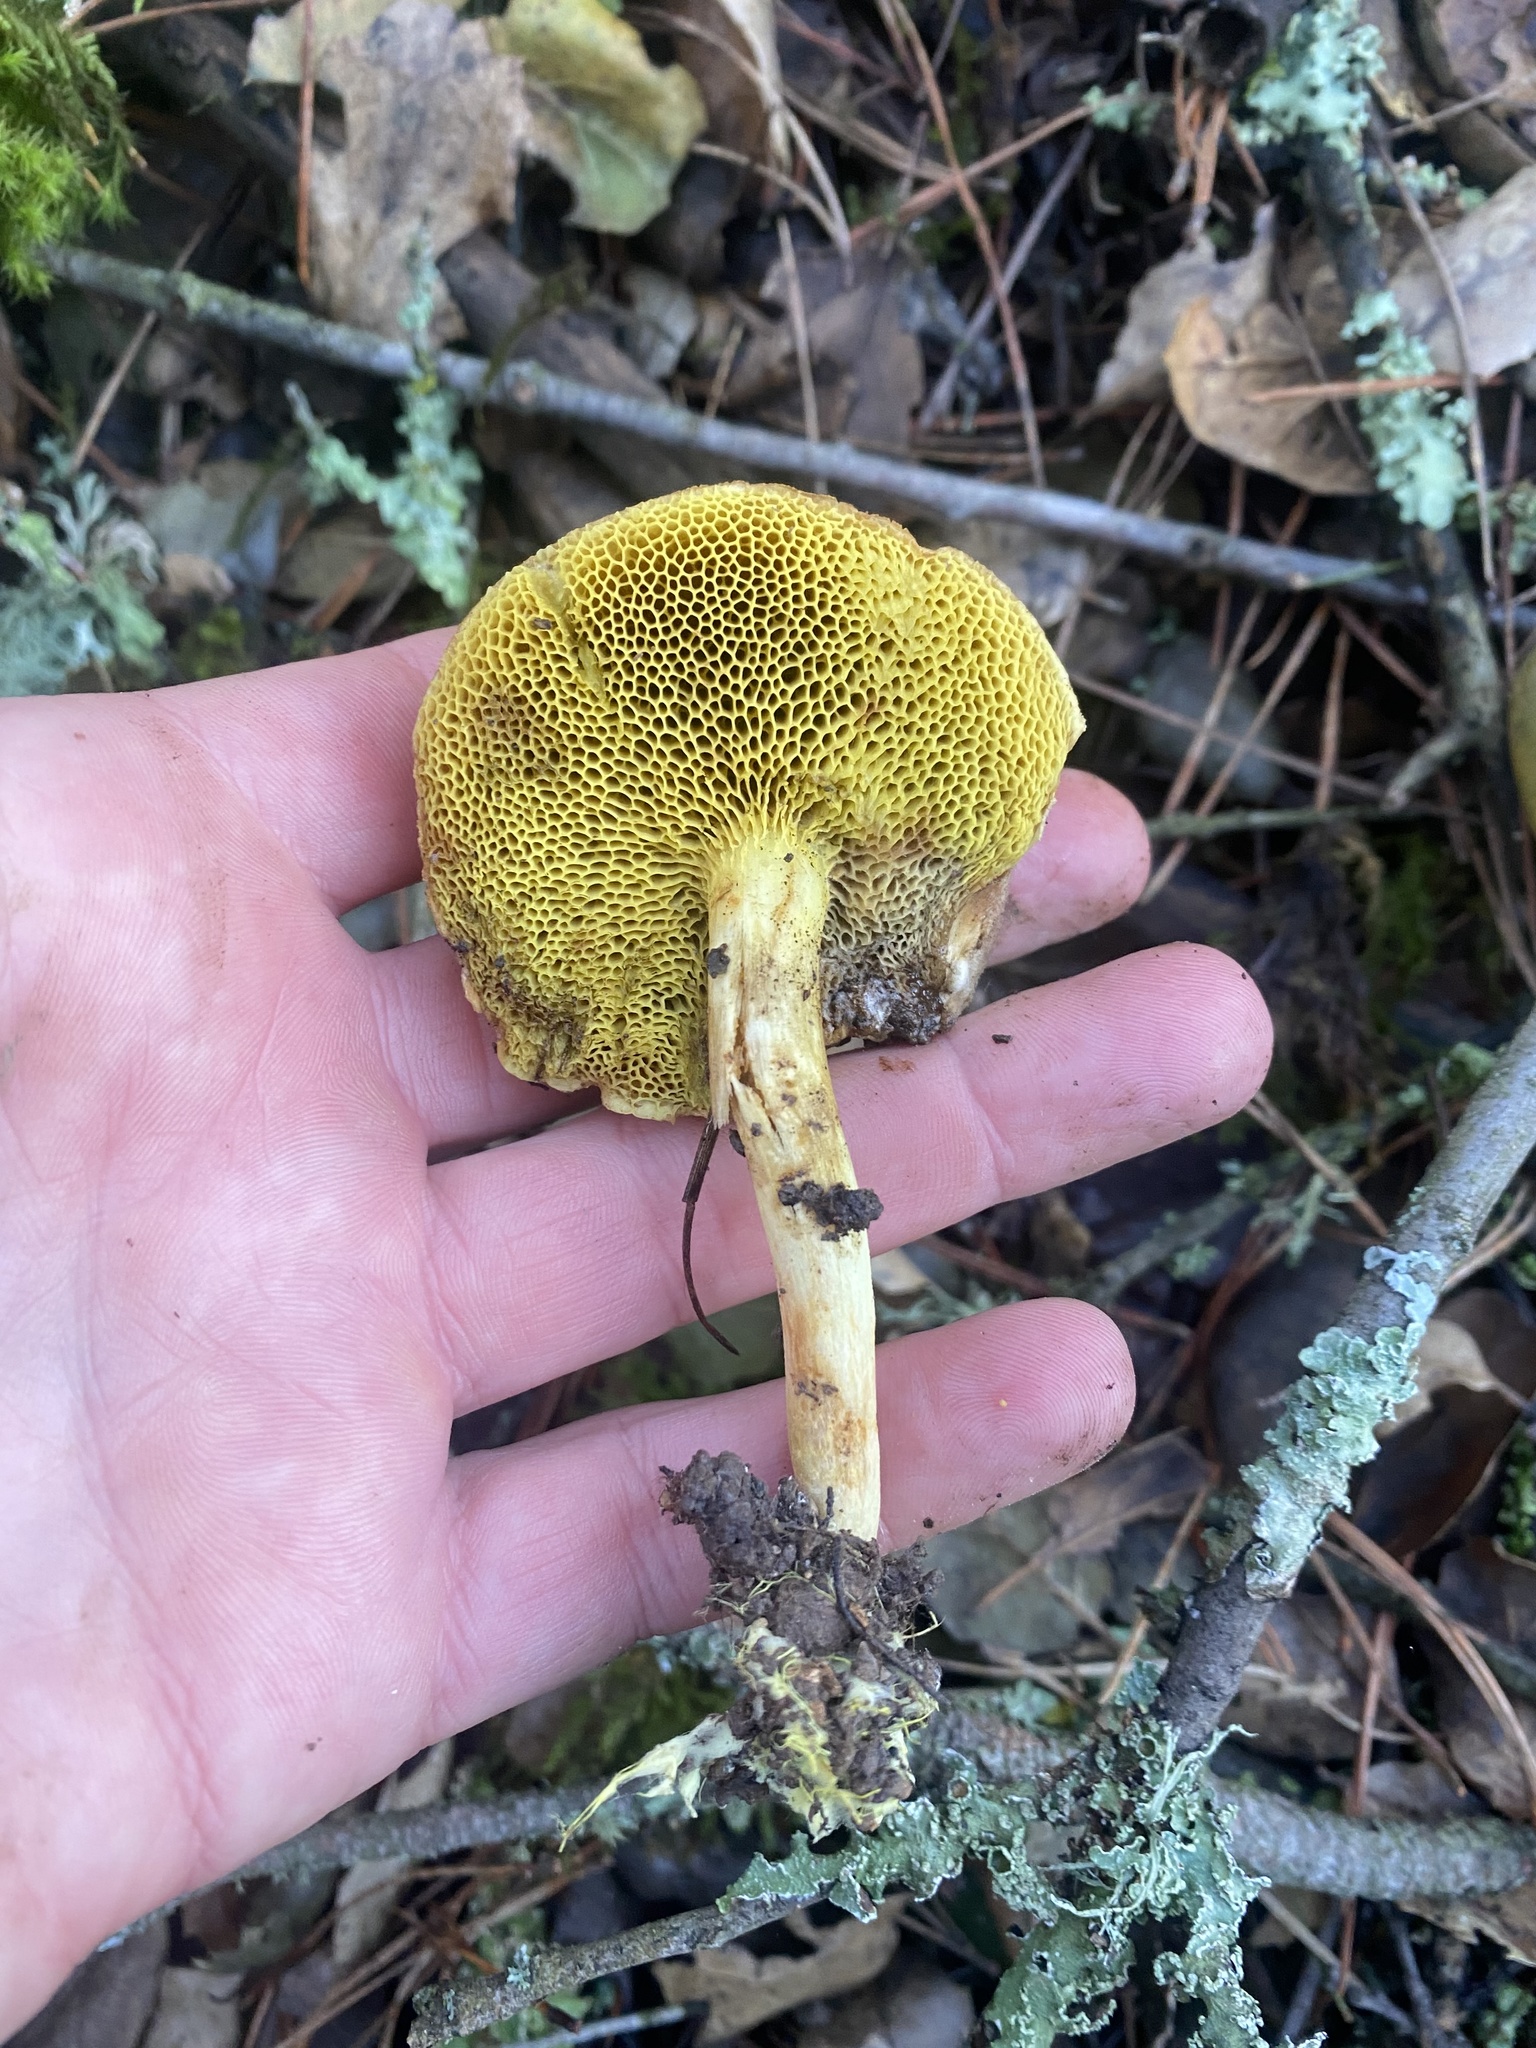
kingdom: Fungi
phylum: Basidiomycota
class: Agaricomycetes
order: Boletales
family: Boletaceae
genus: Xerocomus
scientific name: Xerocomus subtomentosus
